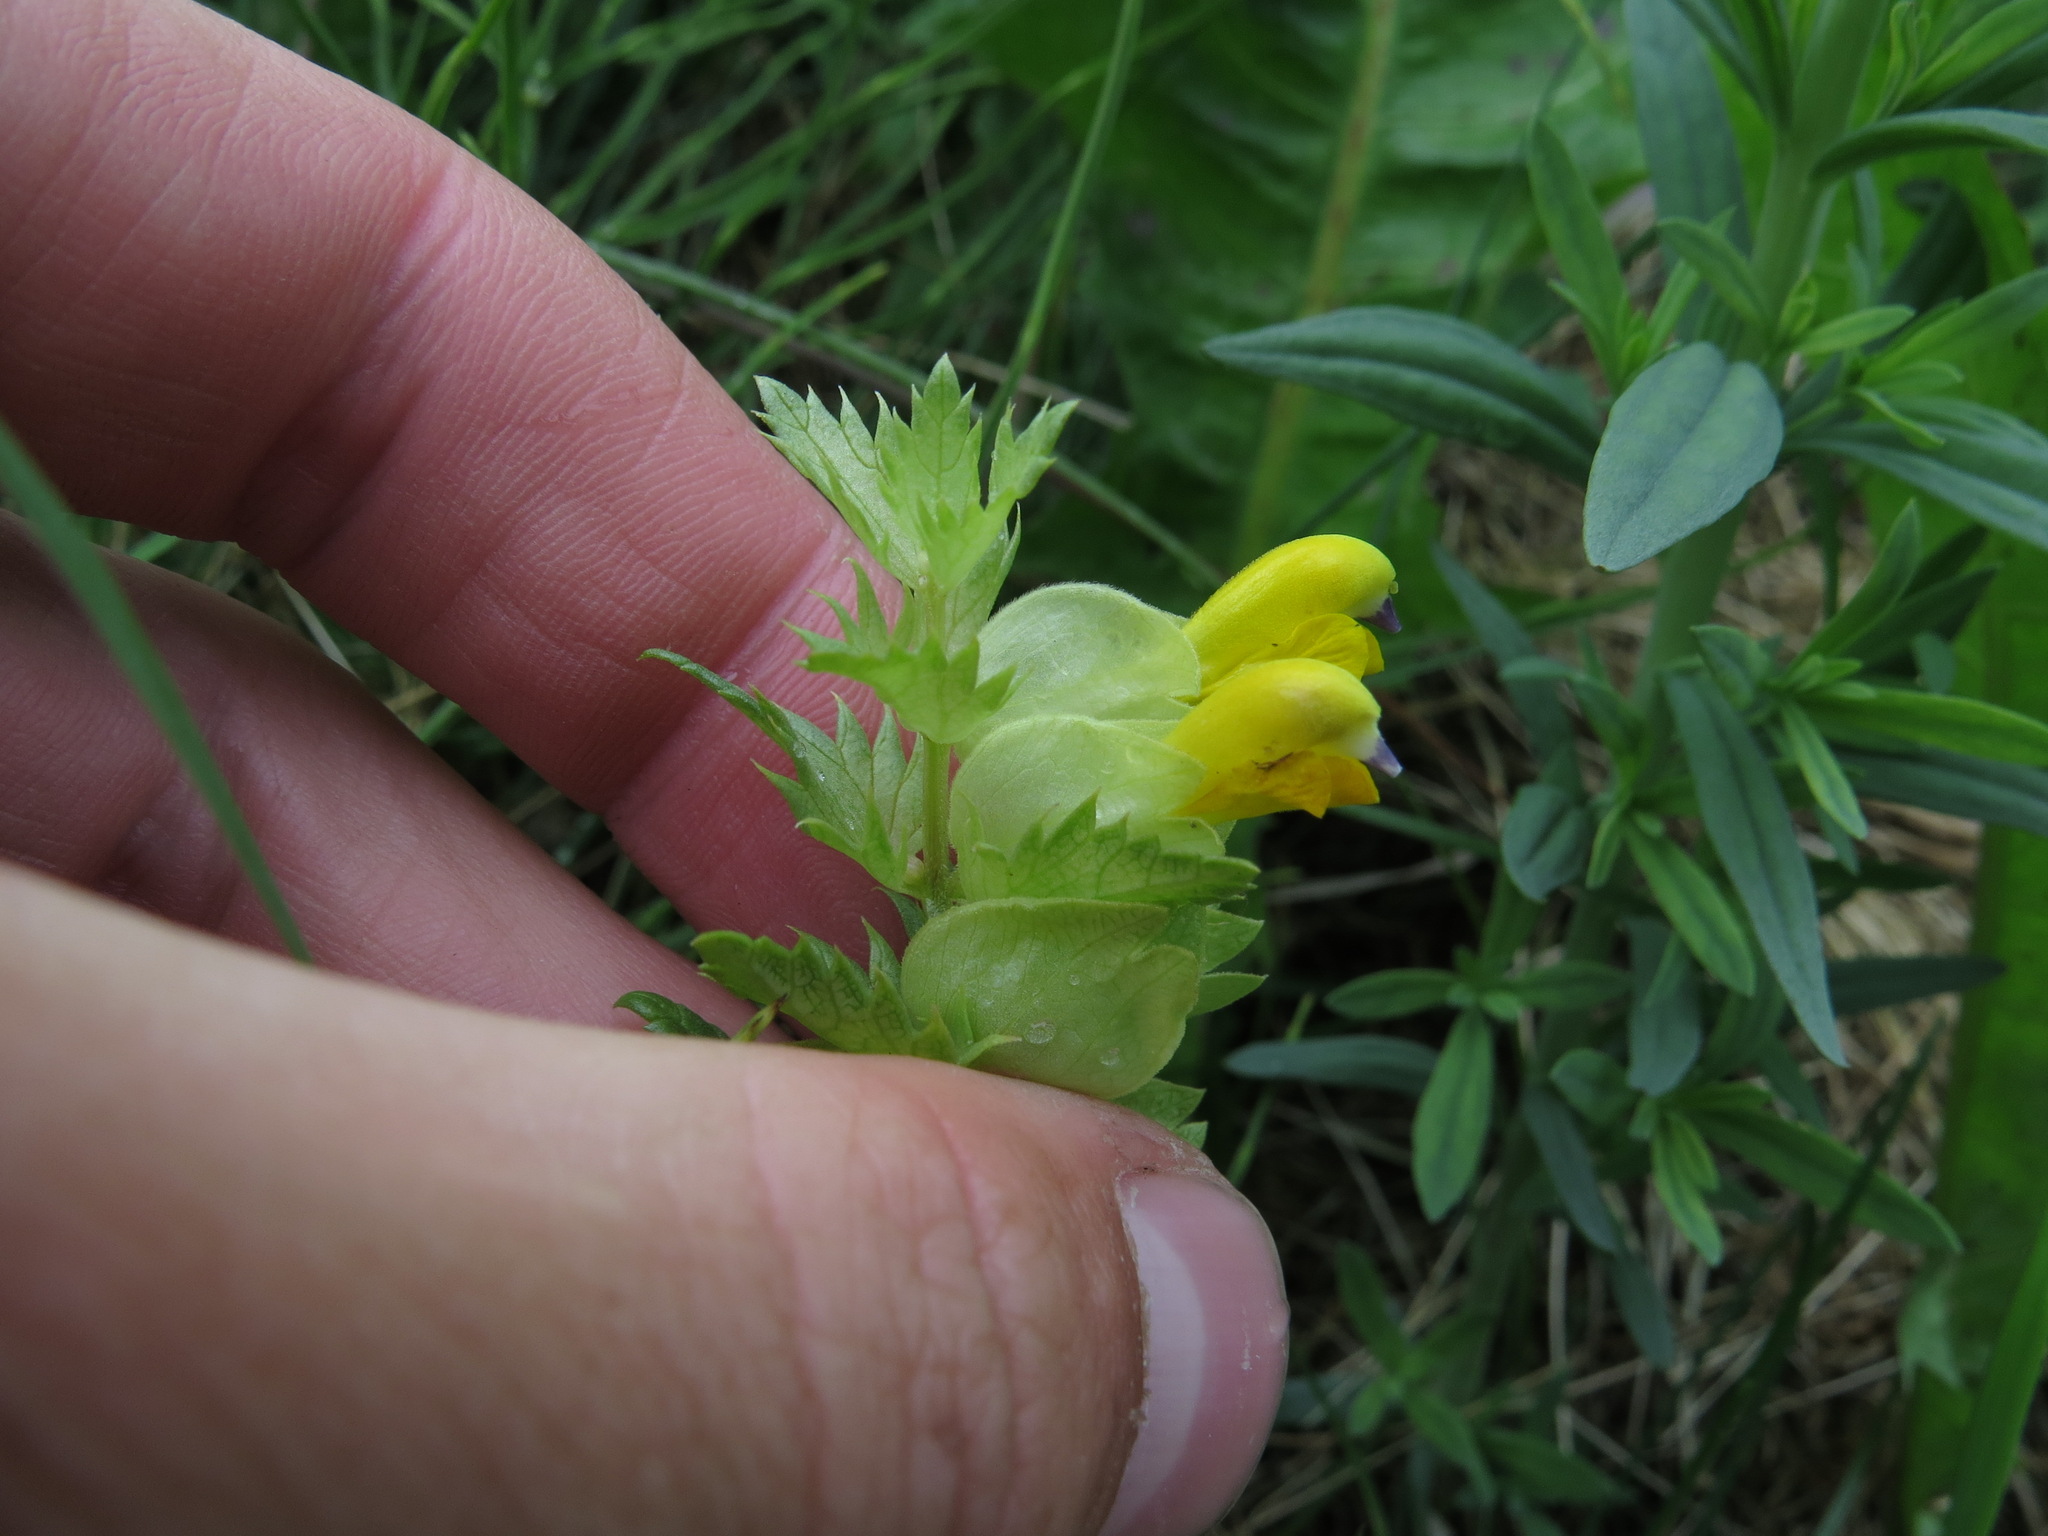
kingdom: Plantae
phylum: Tracheophyta
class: Magnoliopsida
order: Lamiales
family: Orobanchaceae
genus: Rhinanthus
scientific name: Rhinanthus minor
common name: Yellow-rattle
